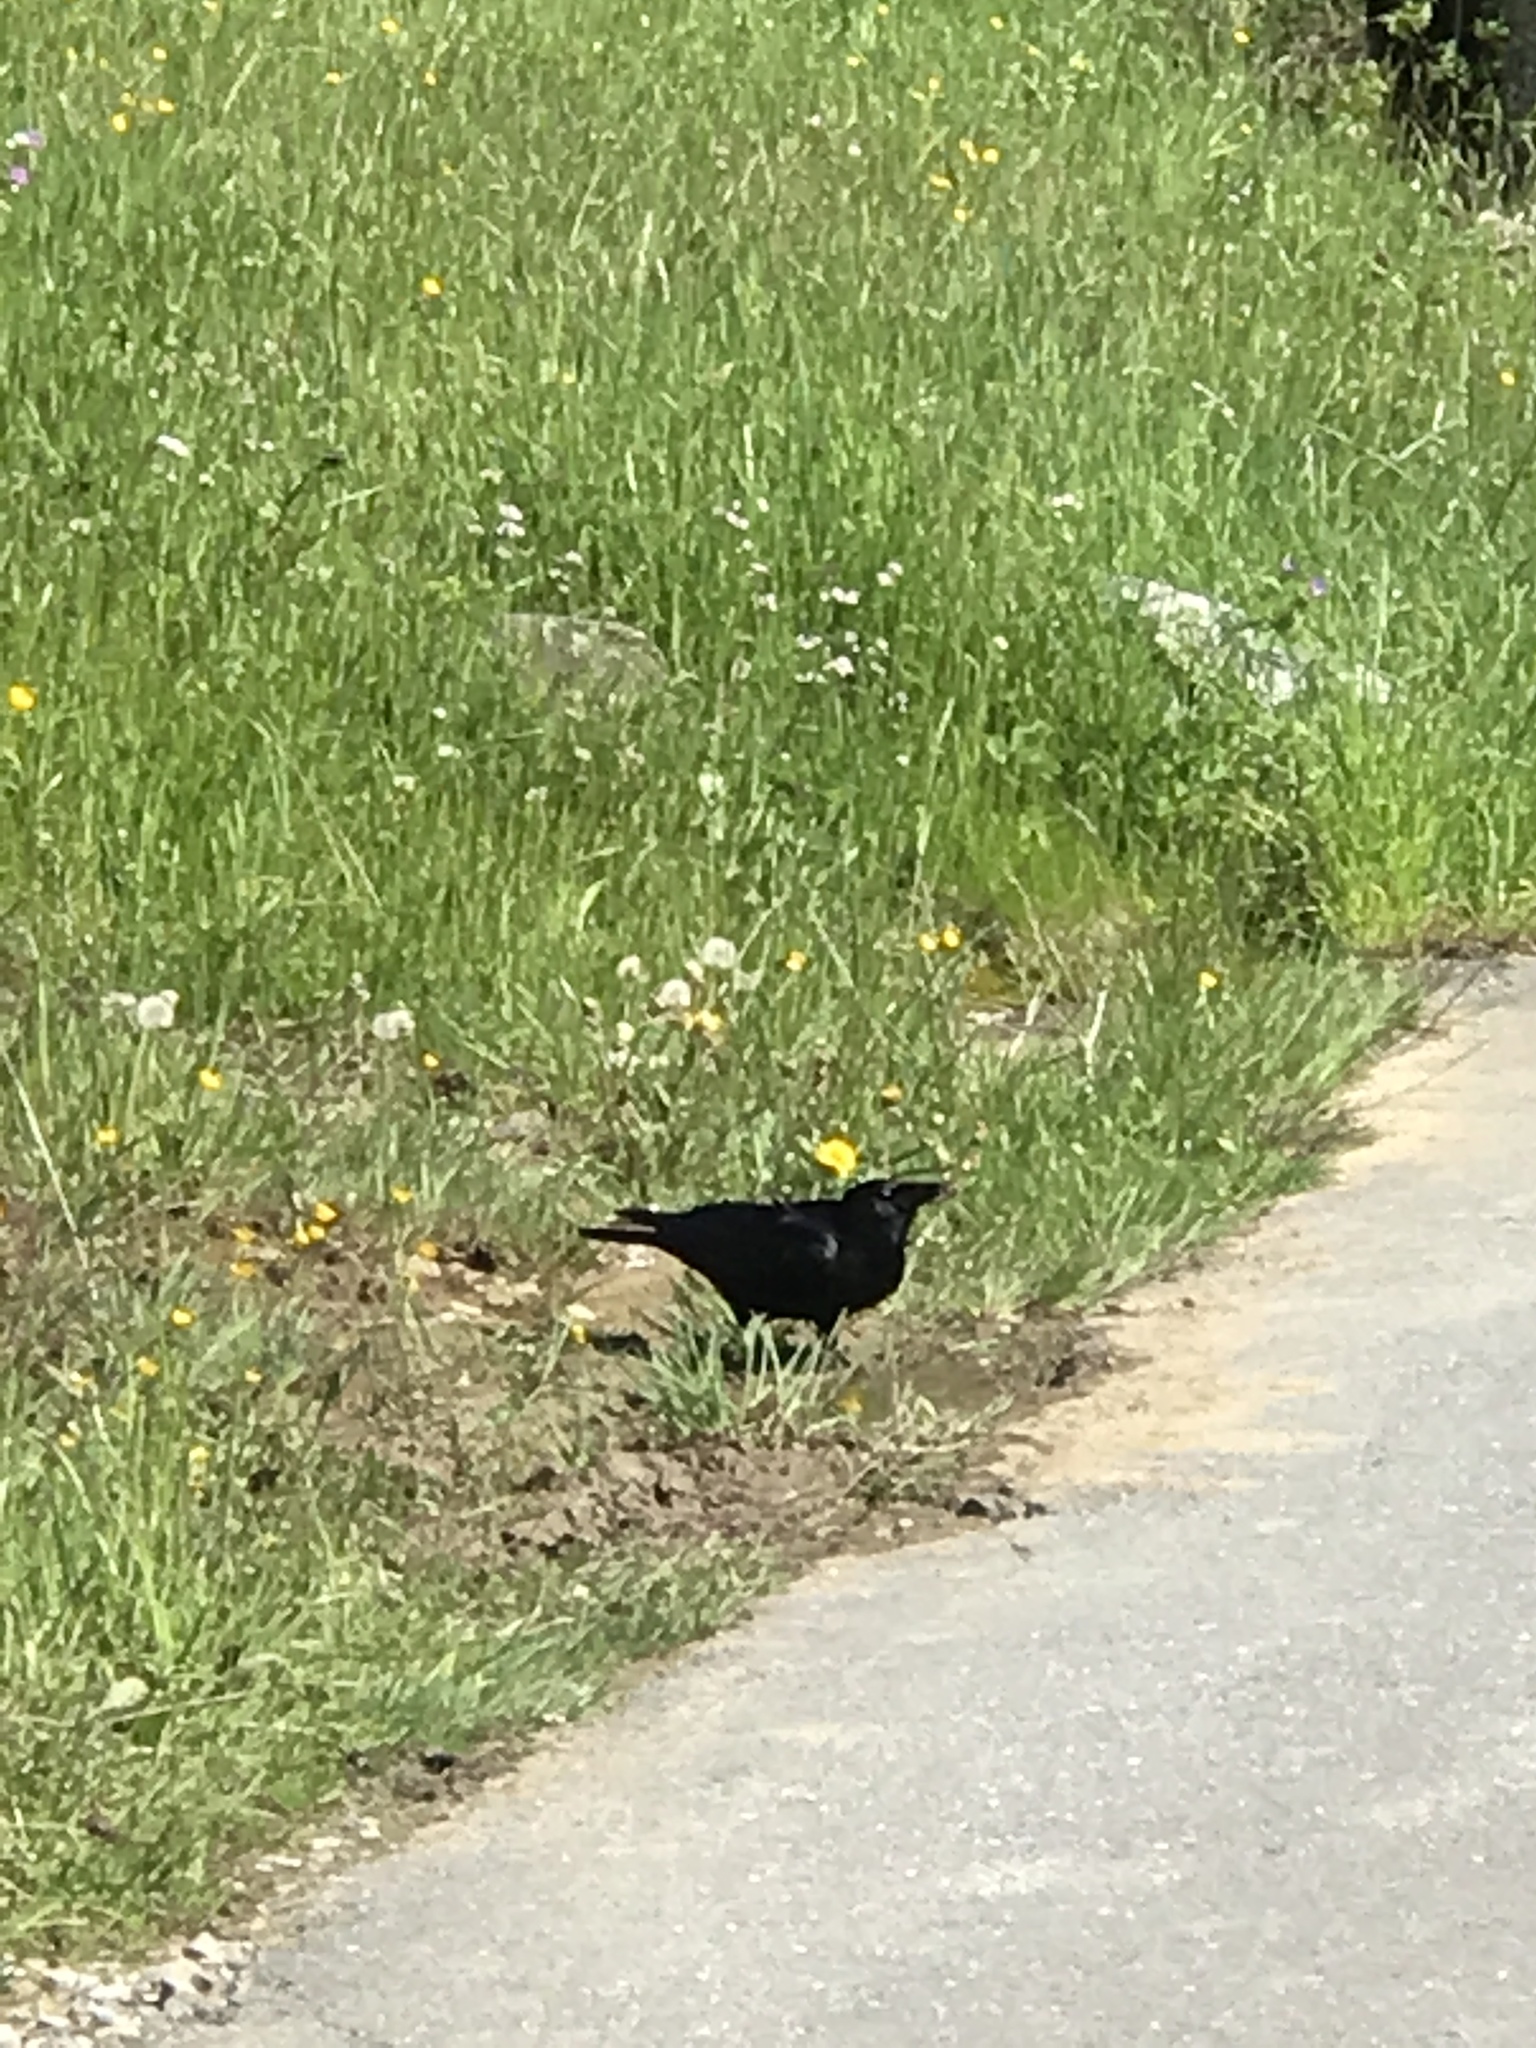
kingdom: Animalia
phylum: Chordata
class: Aves
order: Passeriformes
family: Corvidae
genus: Corvus
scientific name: Corvus corone
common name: Carrion crow
